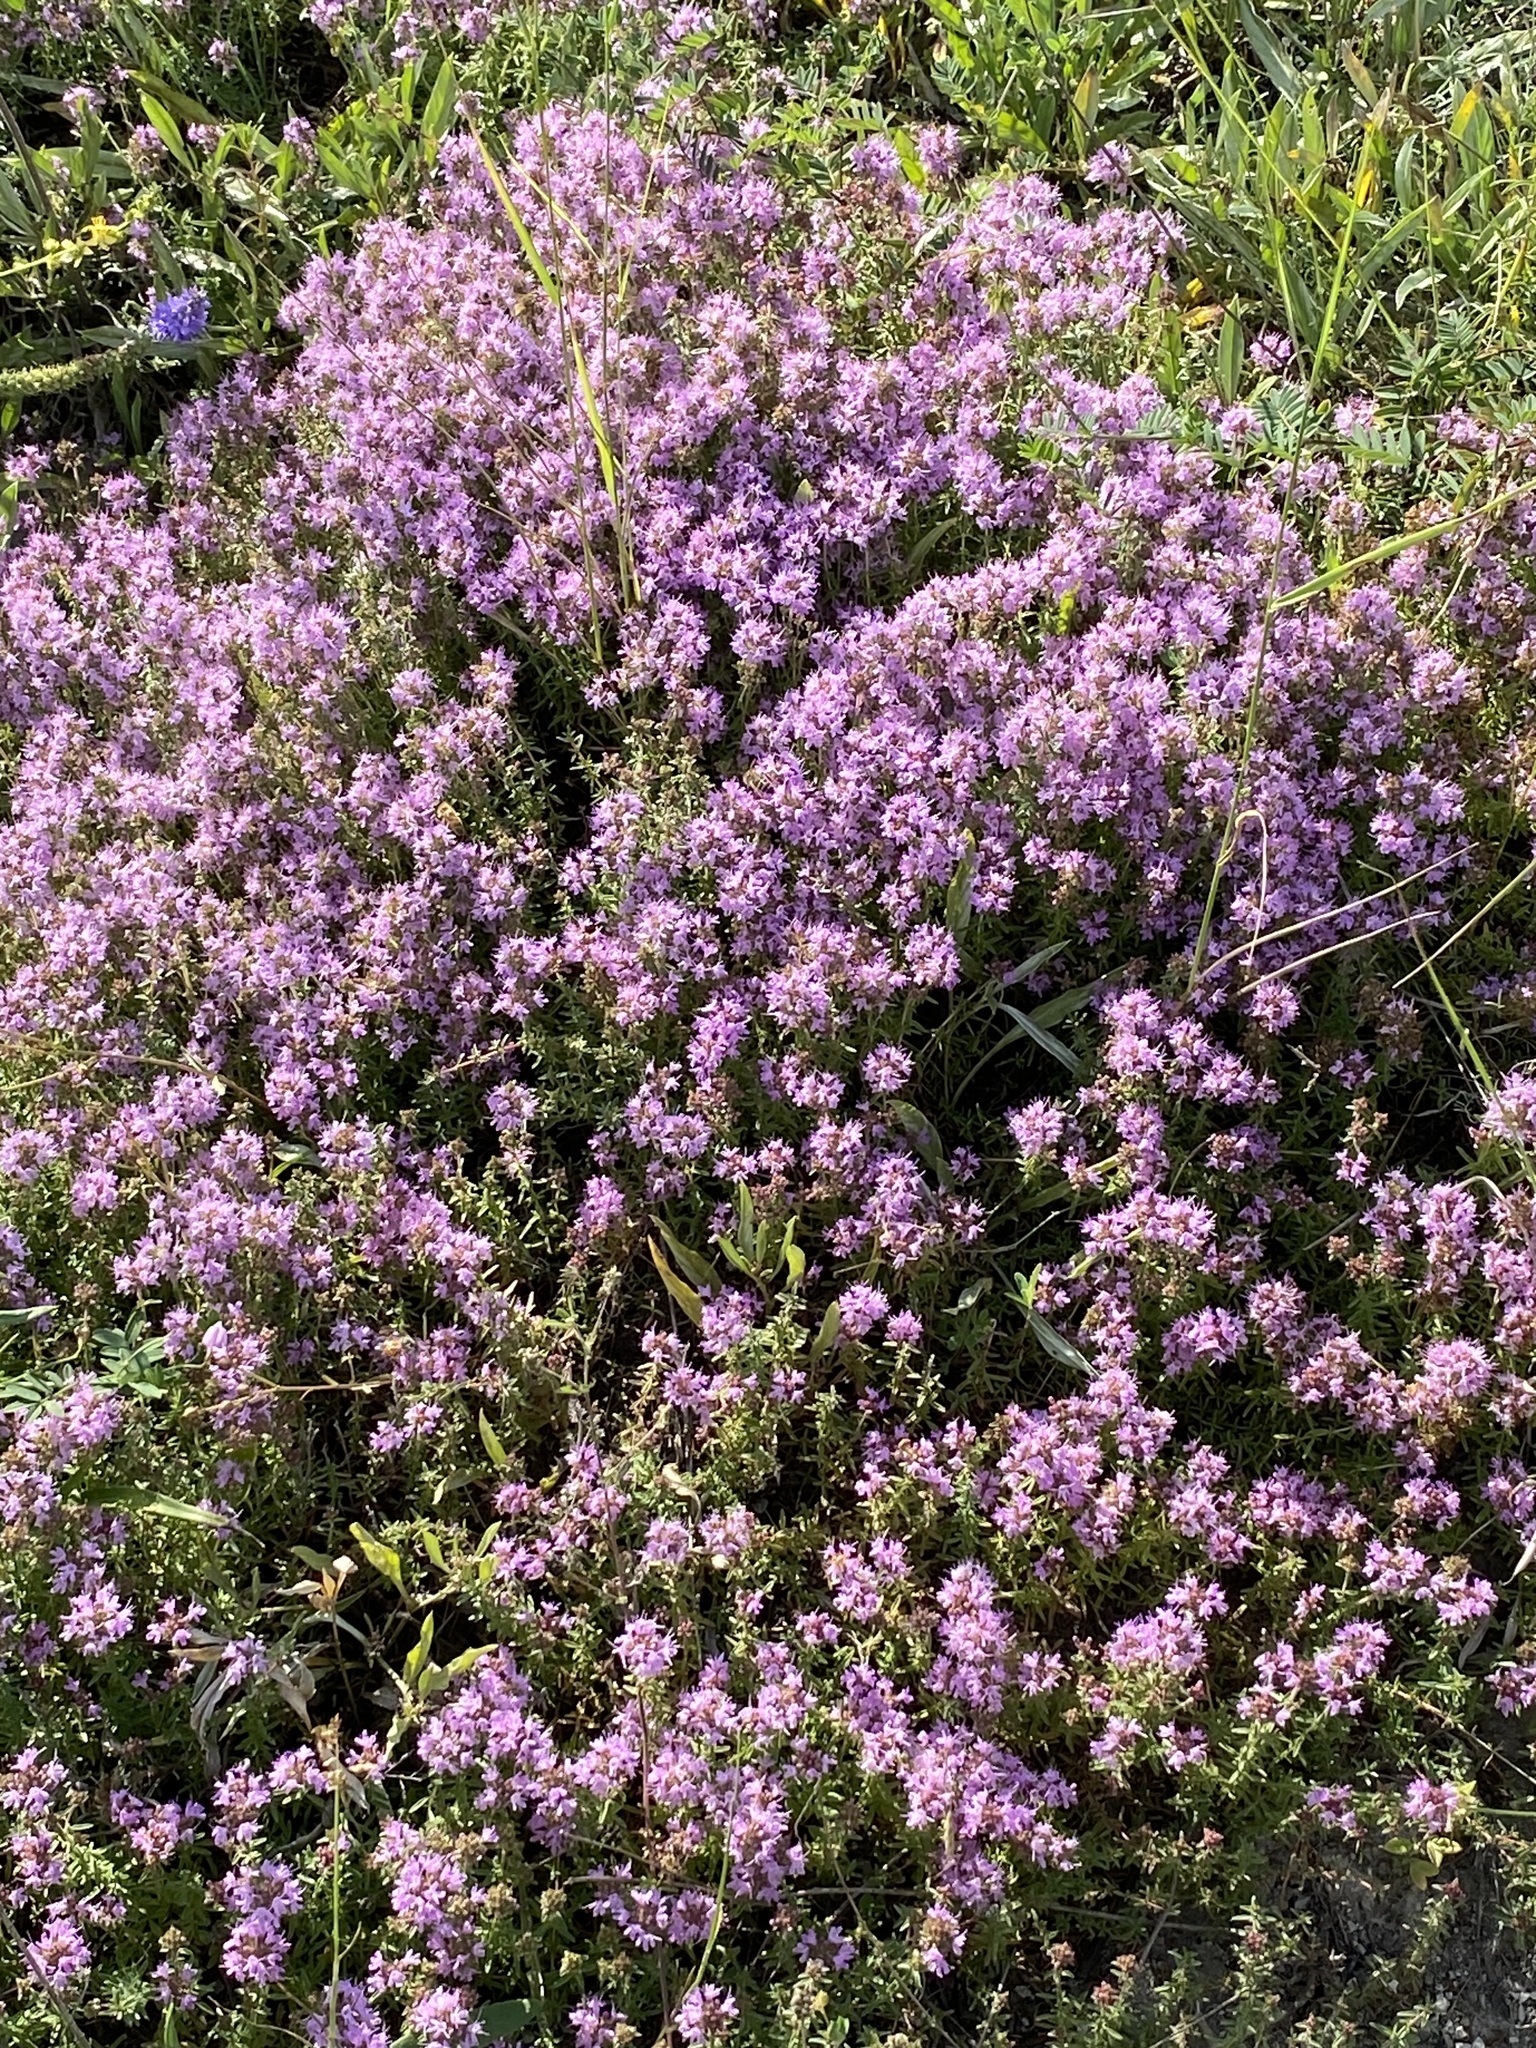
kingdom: Plantae
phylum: Tracheophyta
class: Magnoliopsida
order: Lamiales
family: Lamiaceae
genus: Thymus
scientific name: Thymus calcareus
